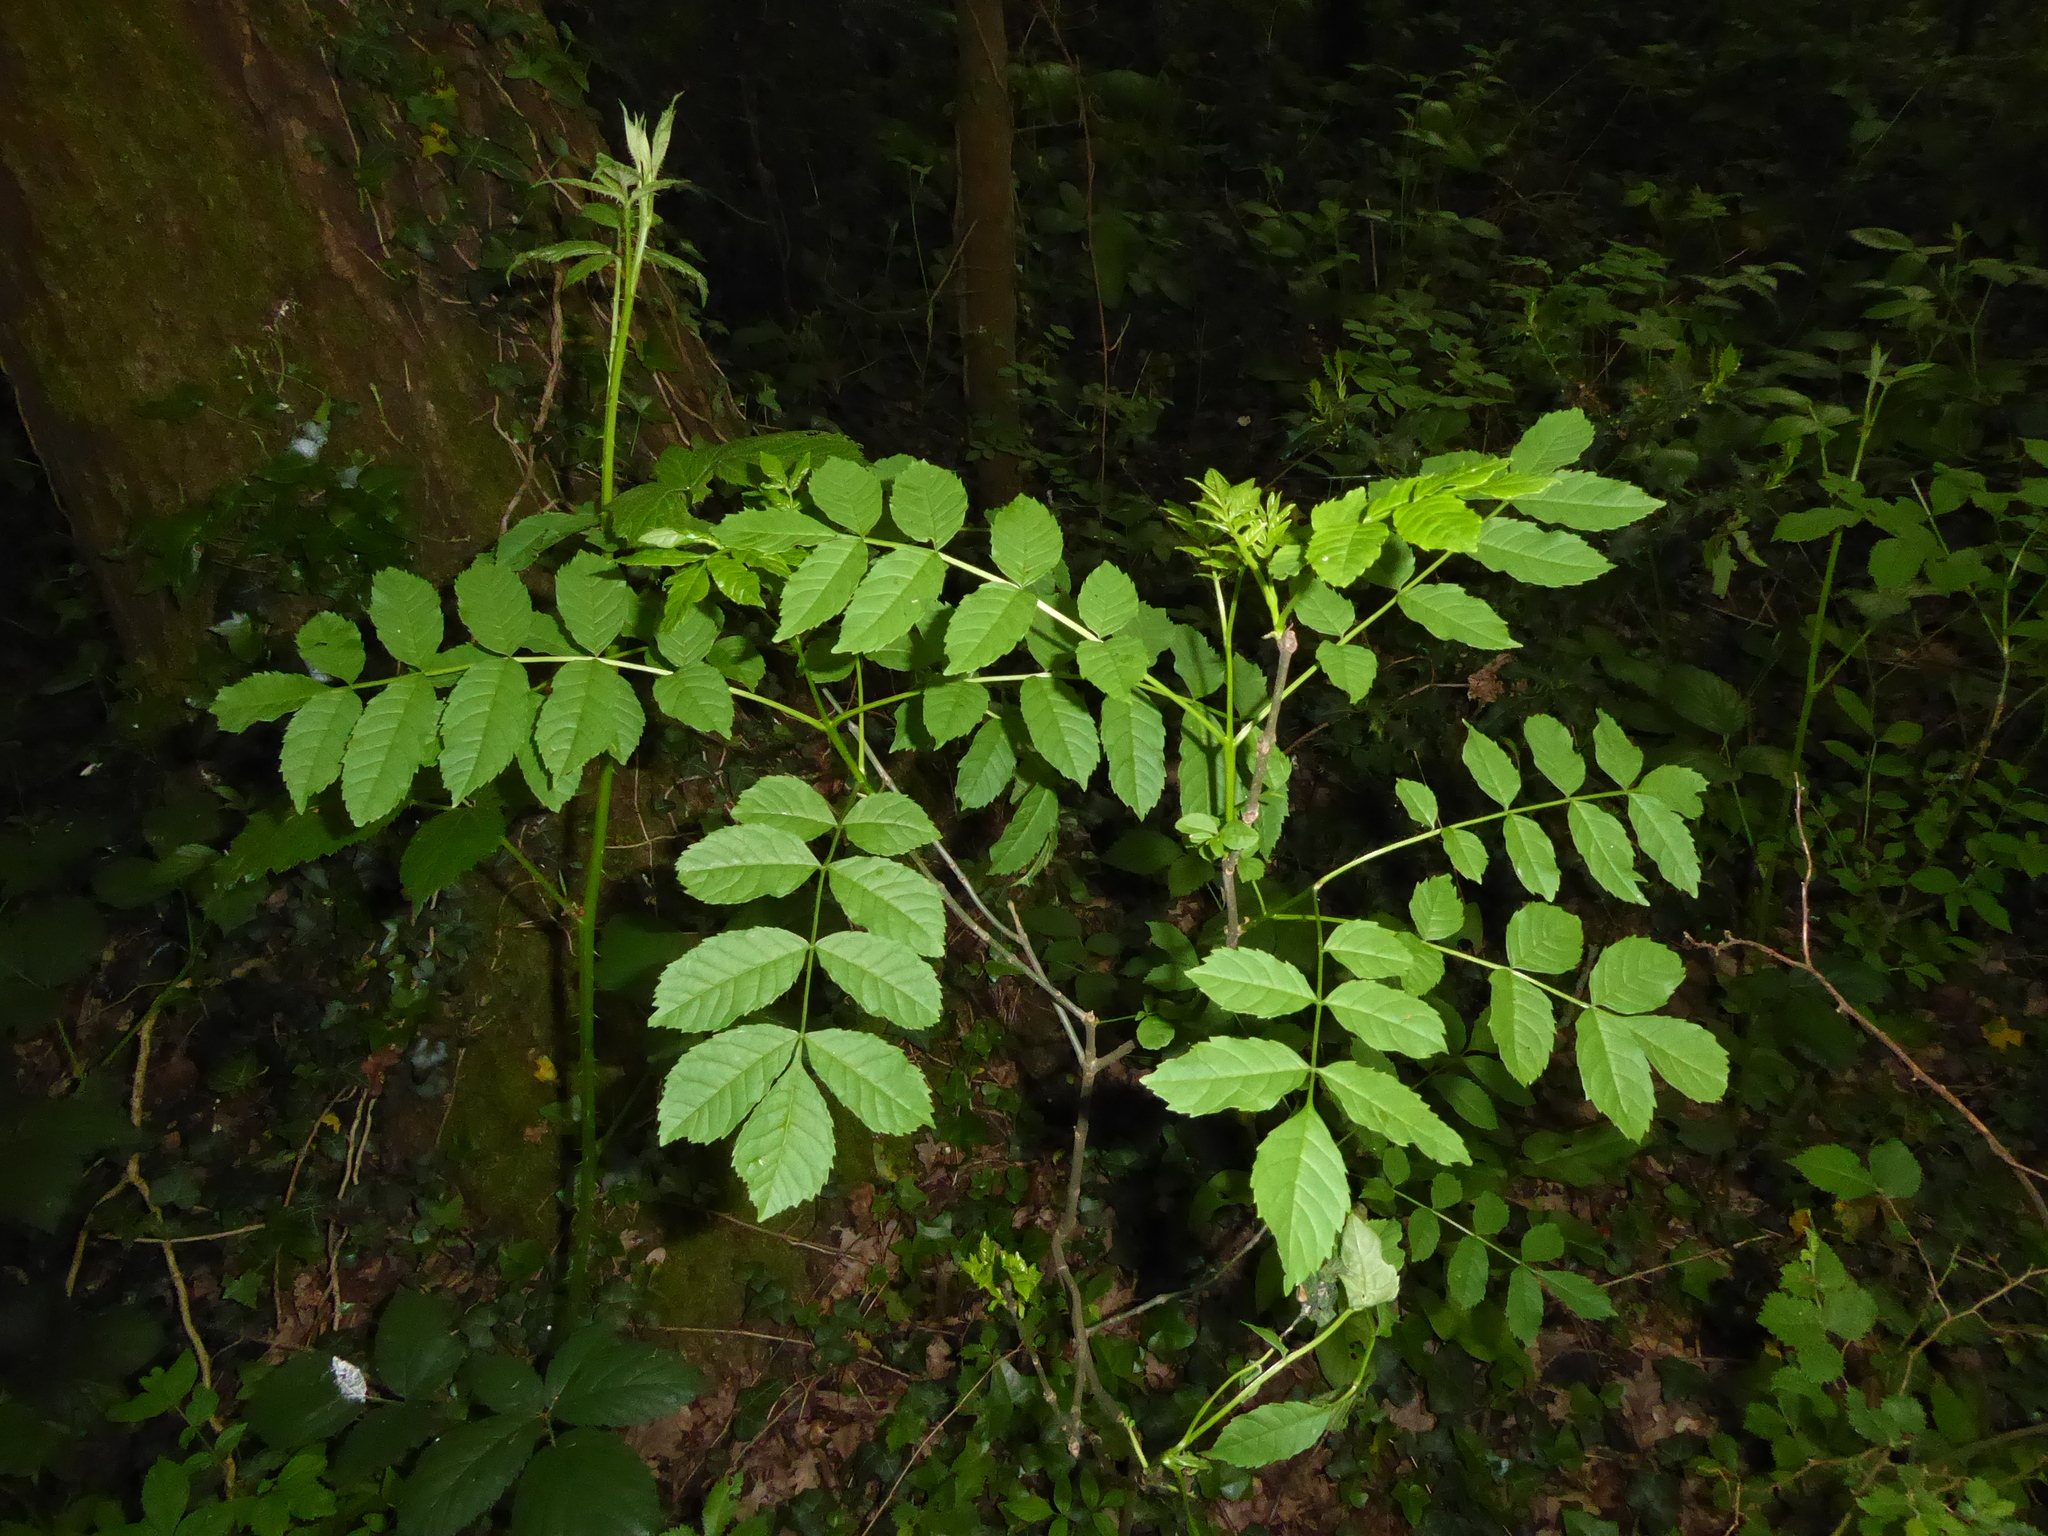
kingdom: Plantae
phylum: Tracheophyta
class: Magnoliopsida
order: Lamiales
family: Oleaceae
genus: Fraxinus
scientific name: Fraxinus excelsior
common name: European ash
